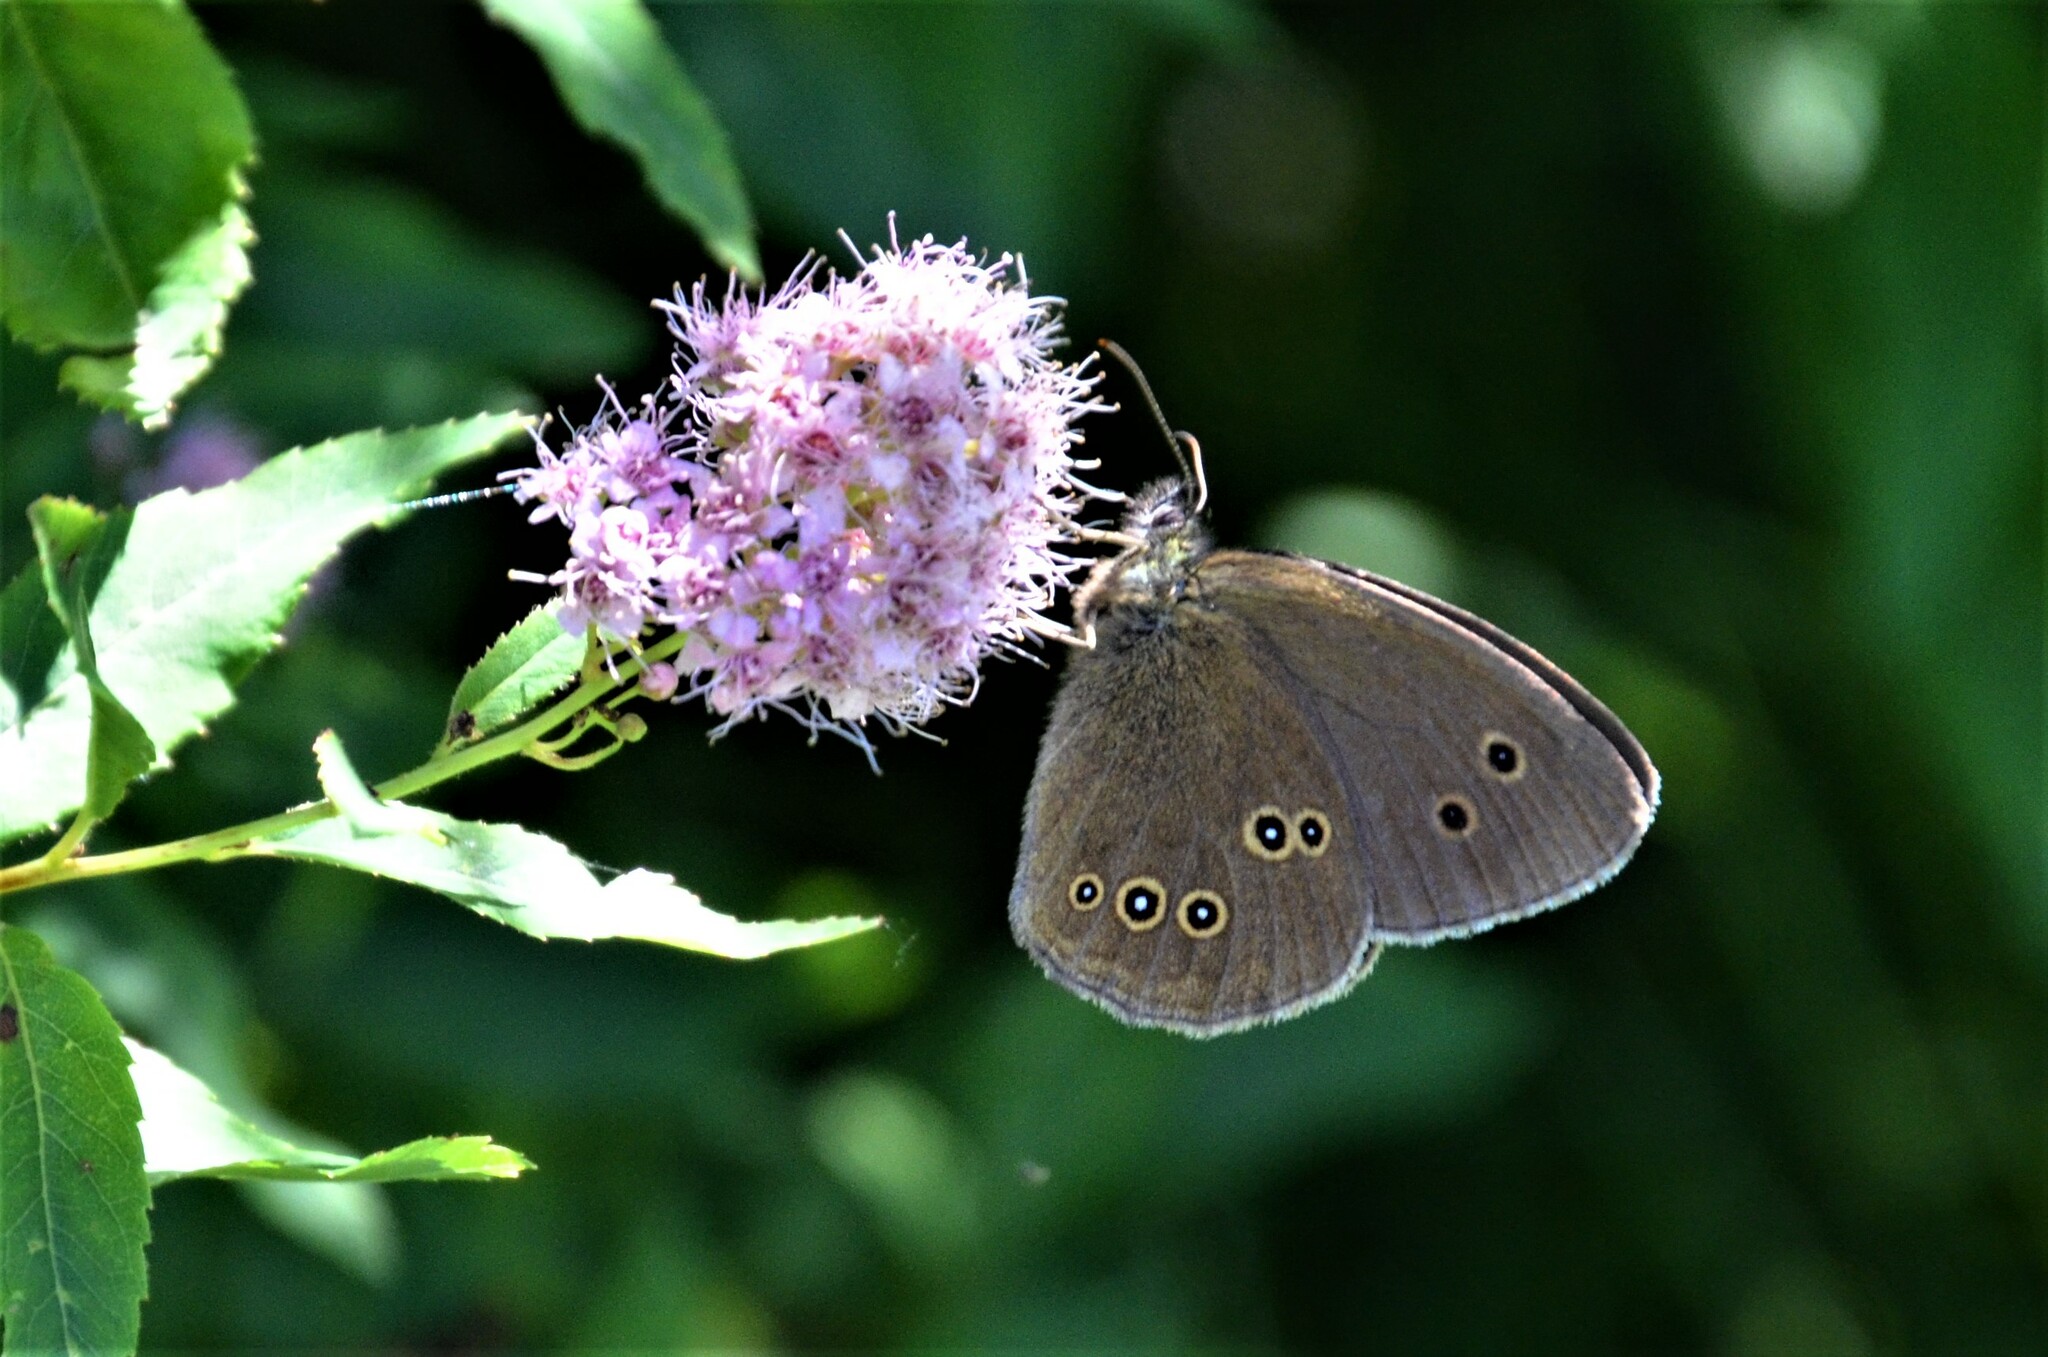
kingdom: Animalia
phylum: Arthropoda
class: Insecta
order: Lepidoptera
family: Nymphalidae
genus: Aphantopus
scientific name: Aphantopus hyperantus
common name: Ringlet
